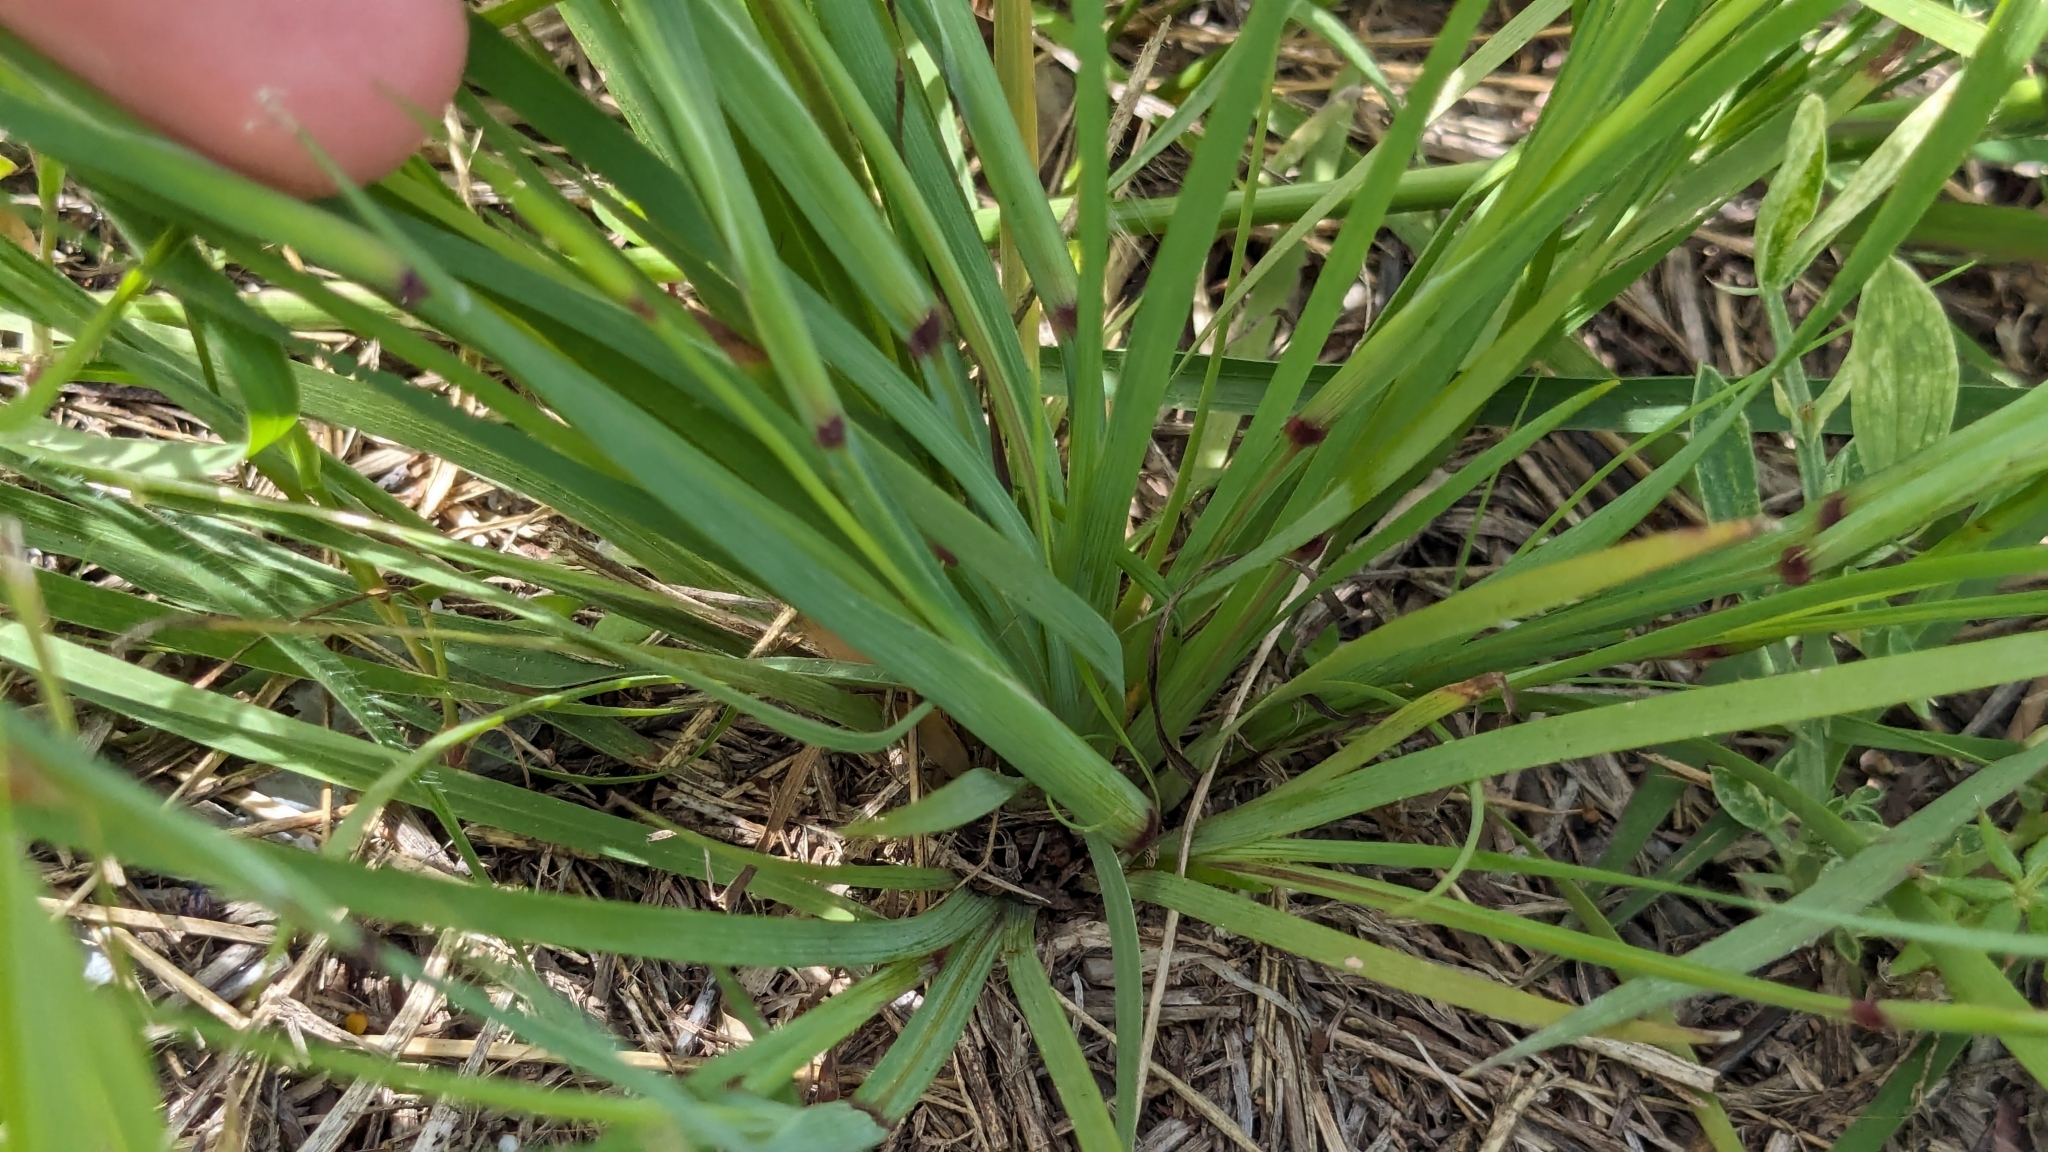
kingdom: Plantae
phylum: Tracheophyta
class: Liliopsida
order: Asparagales
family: Iridaceae
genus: Sisyrinchium
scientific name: Sisyrinchium pruinosum
